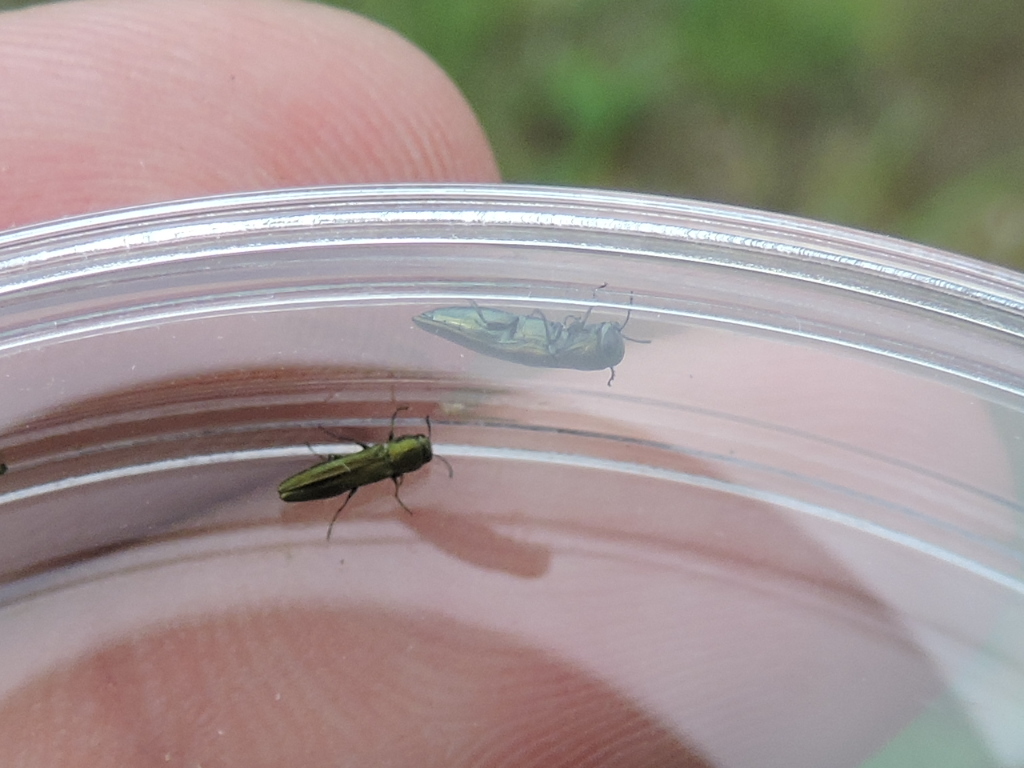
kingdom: Animalia
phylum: Arthropoda
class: Insecta
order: Coleoptera
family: Buprestidae
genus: Agrilus
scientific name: Agrilus lacustris
